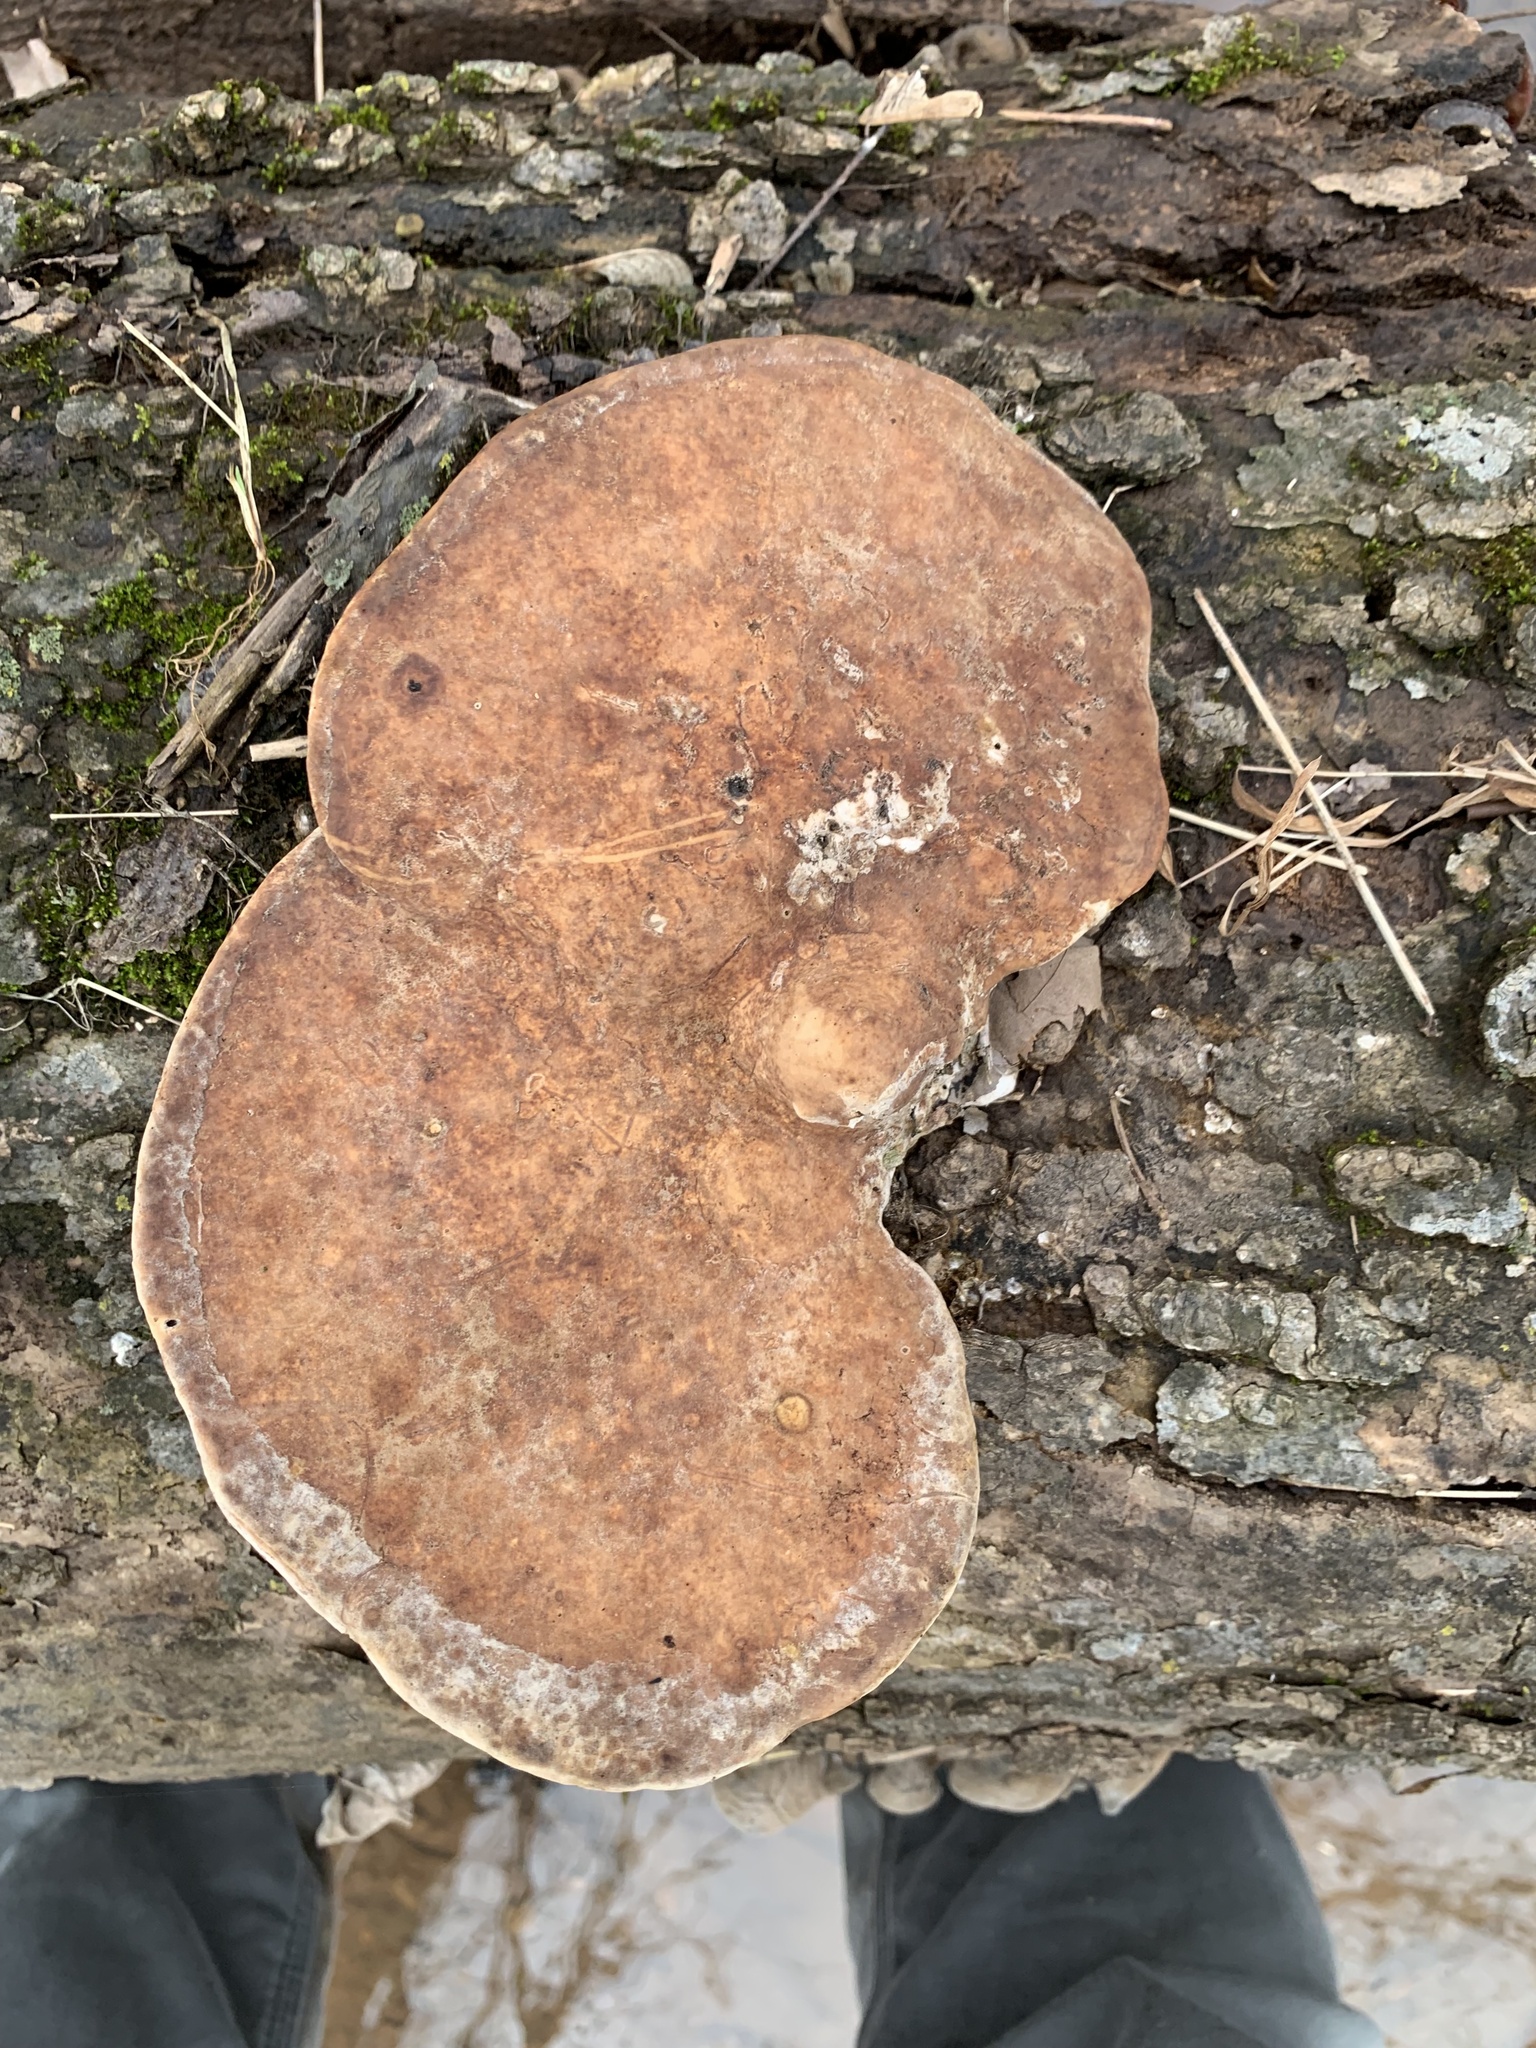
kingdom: Fungi
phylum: Basidiomycota
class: Agaricomycetes
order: Polyporales
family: Polyporaceae
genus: Trametes
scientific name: Trametes gibbosa
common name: Lumpy bracket
